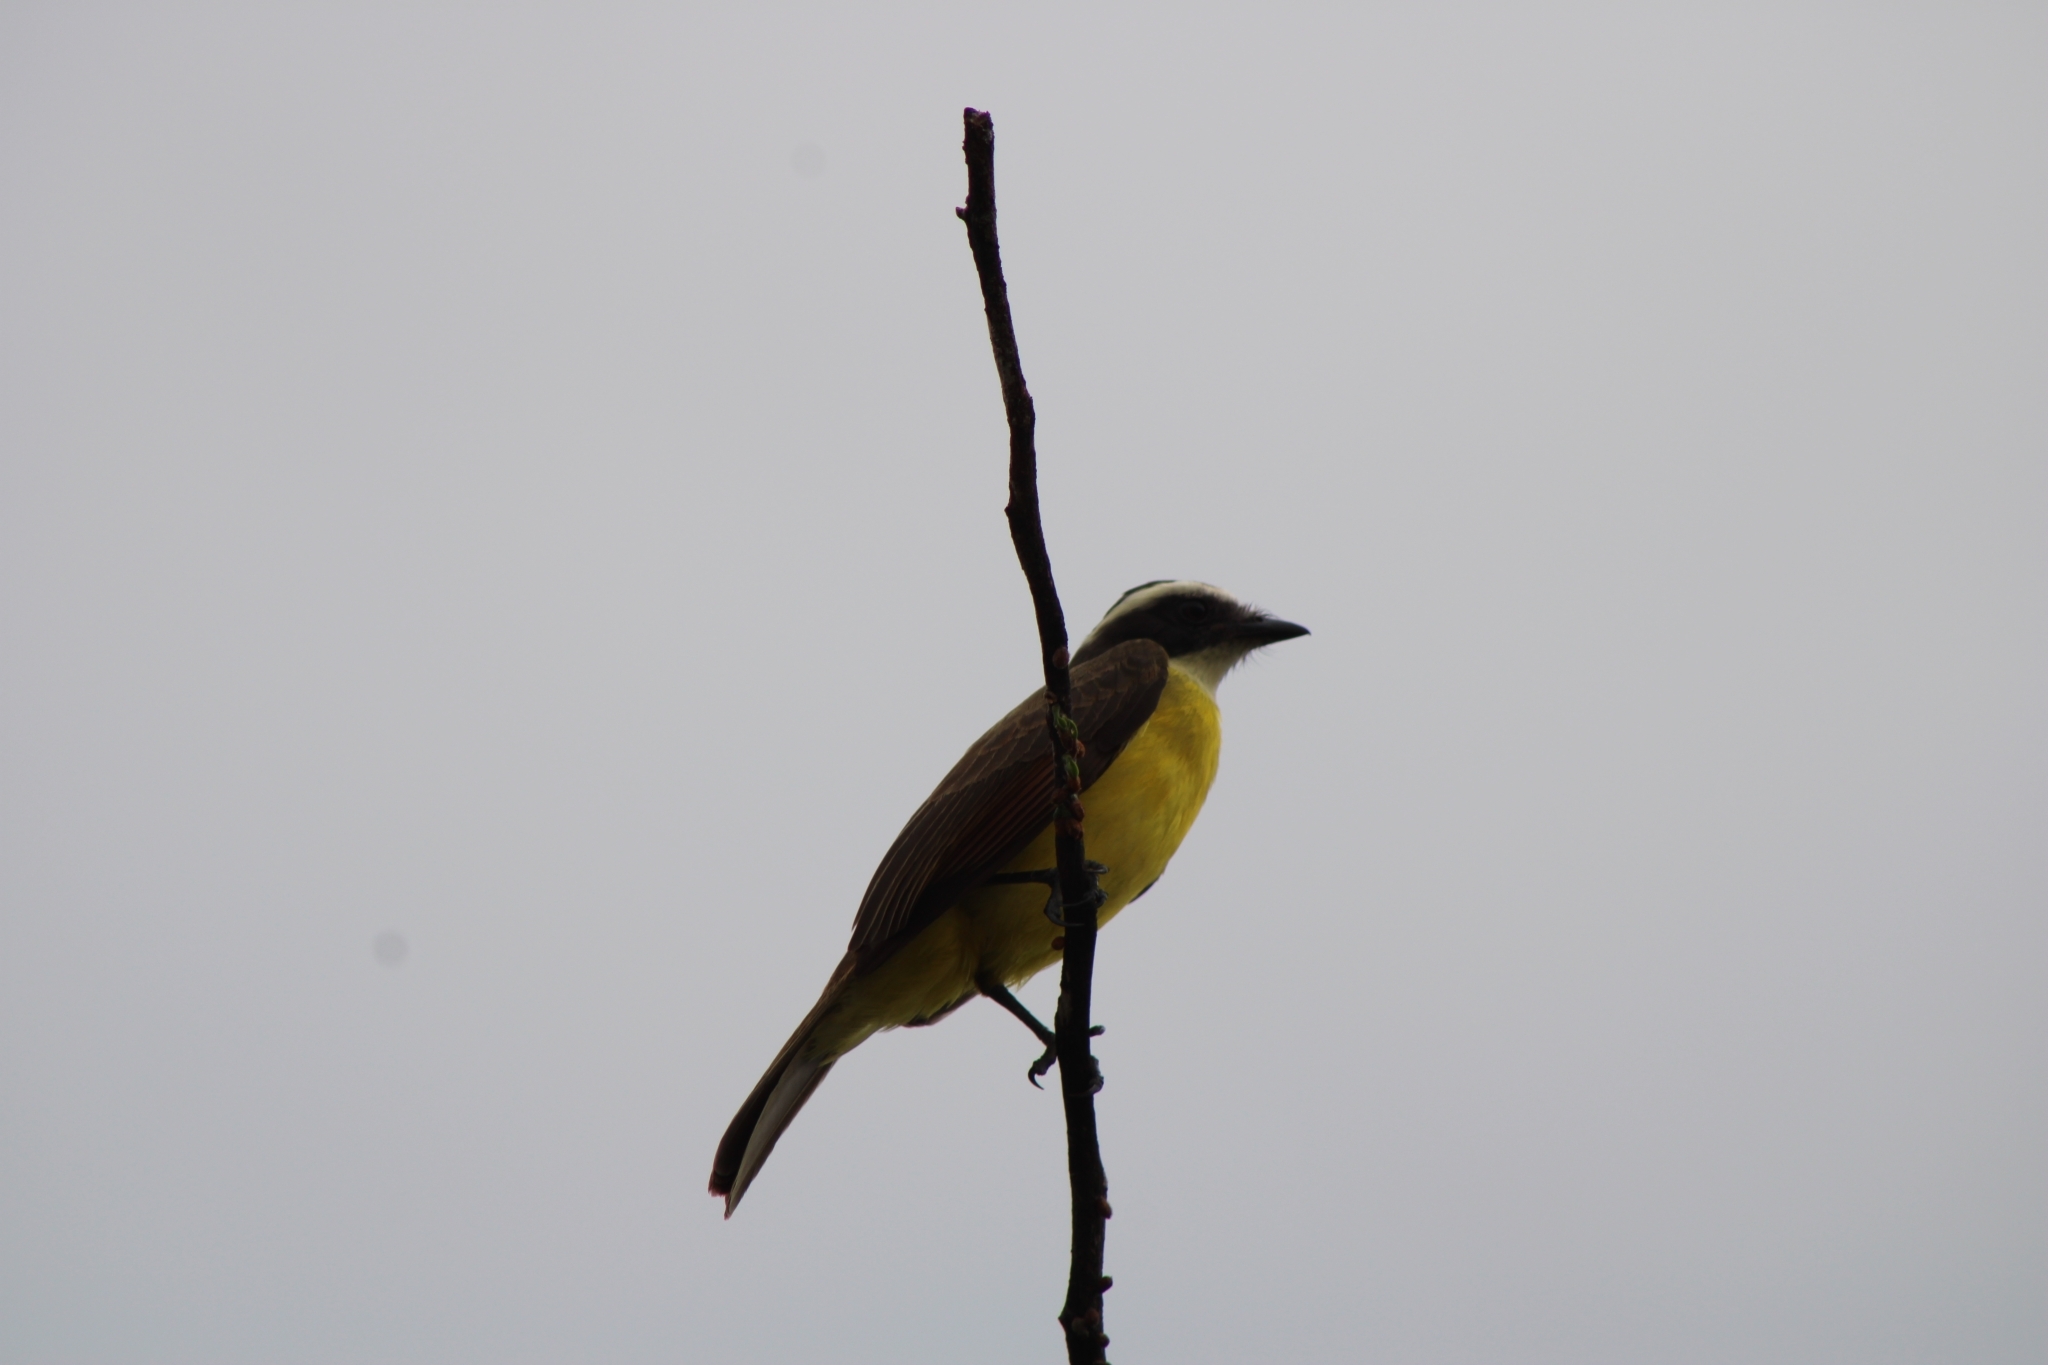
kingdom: Animalia
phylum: Chordata
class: Aves
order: Passeriformes
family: Tyrannidae
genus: Myiozetetes
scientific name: Myiozetetes cayanensis
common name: Rusty-margined flycatcher
